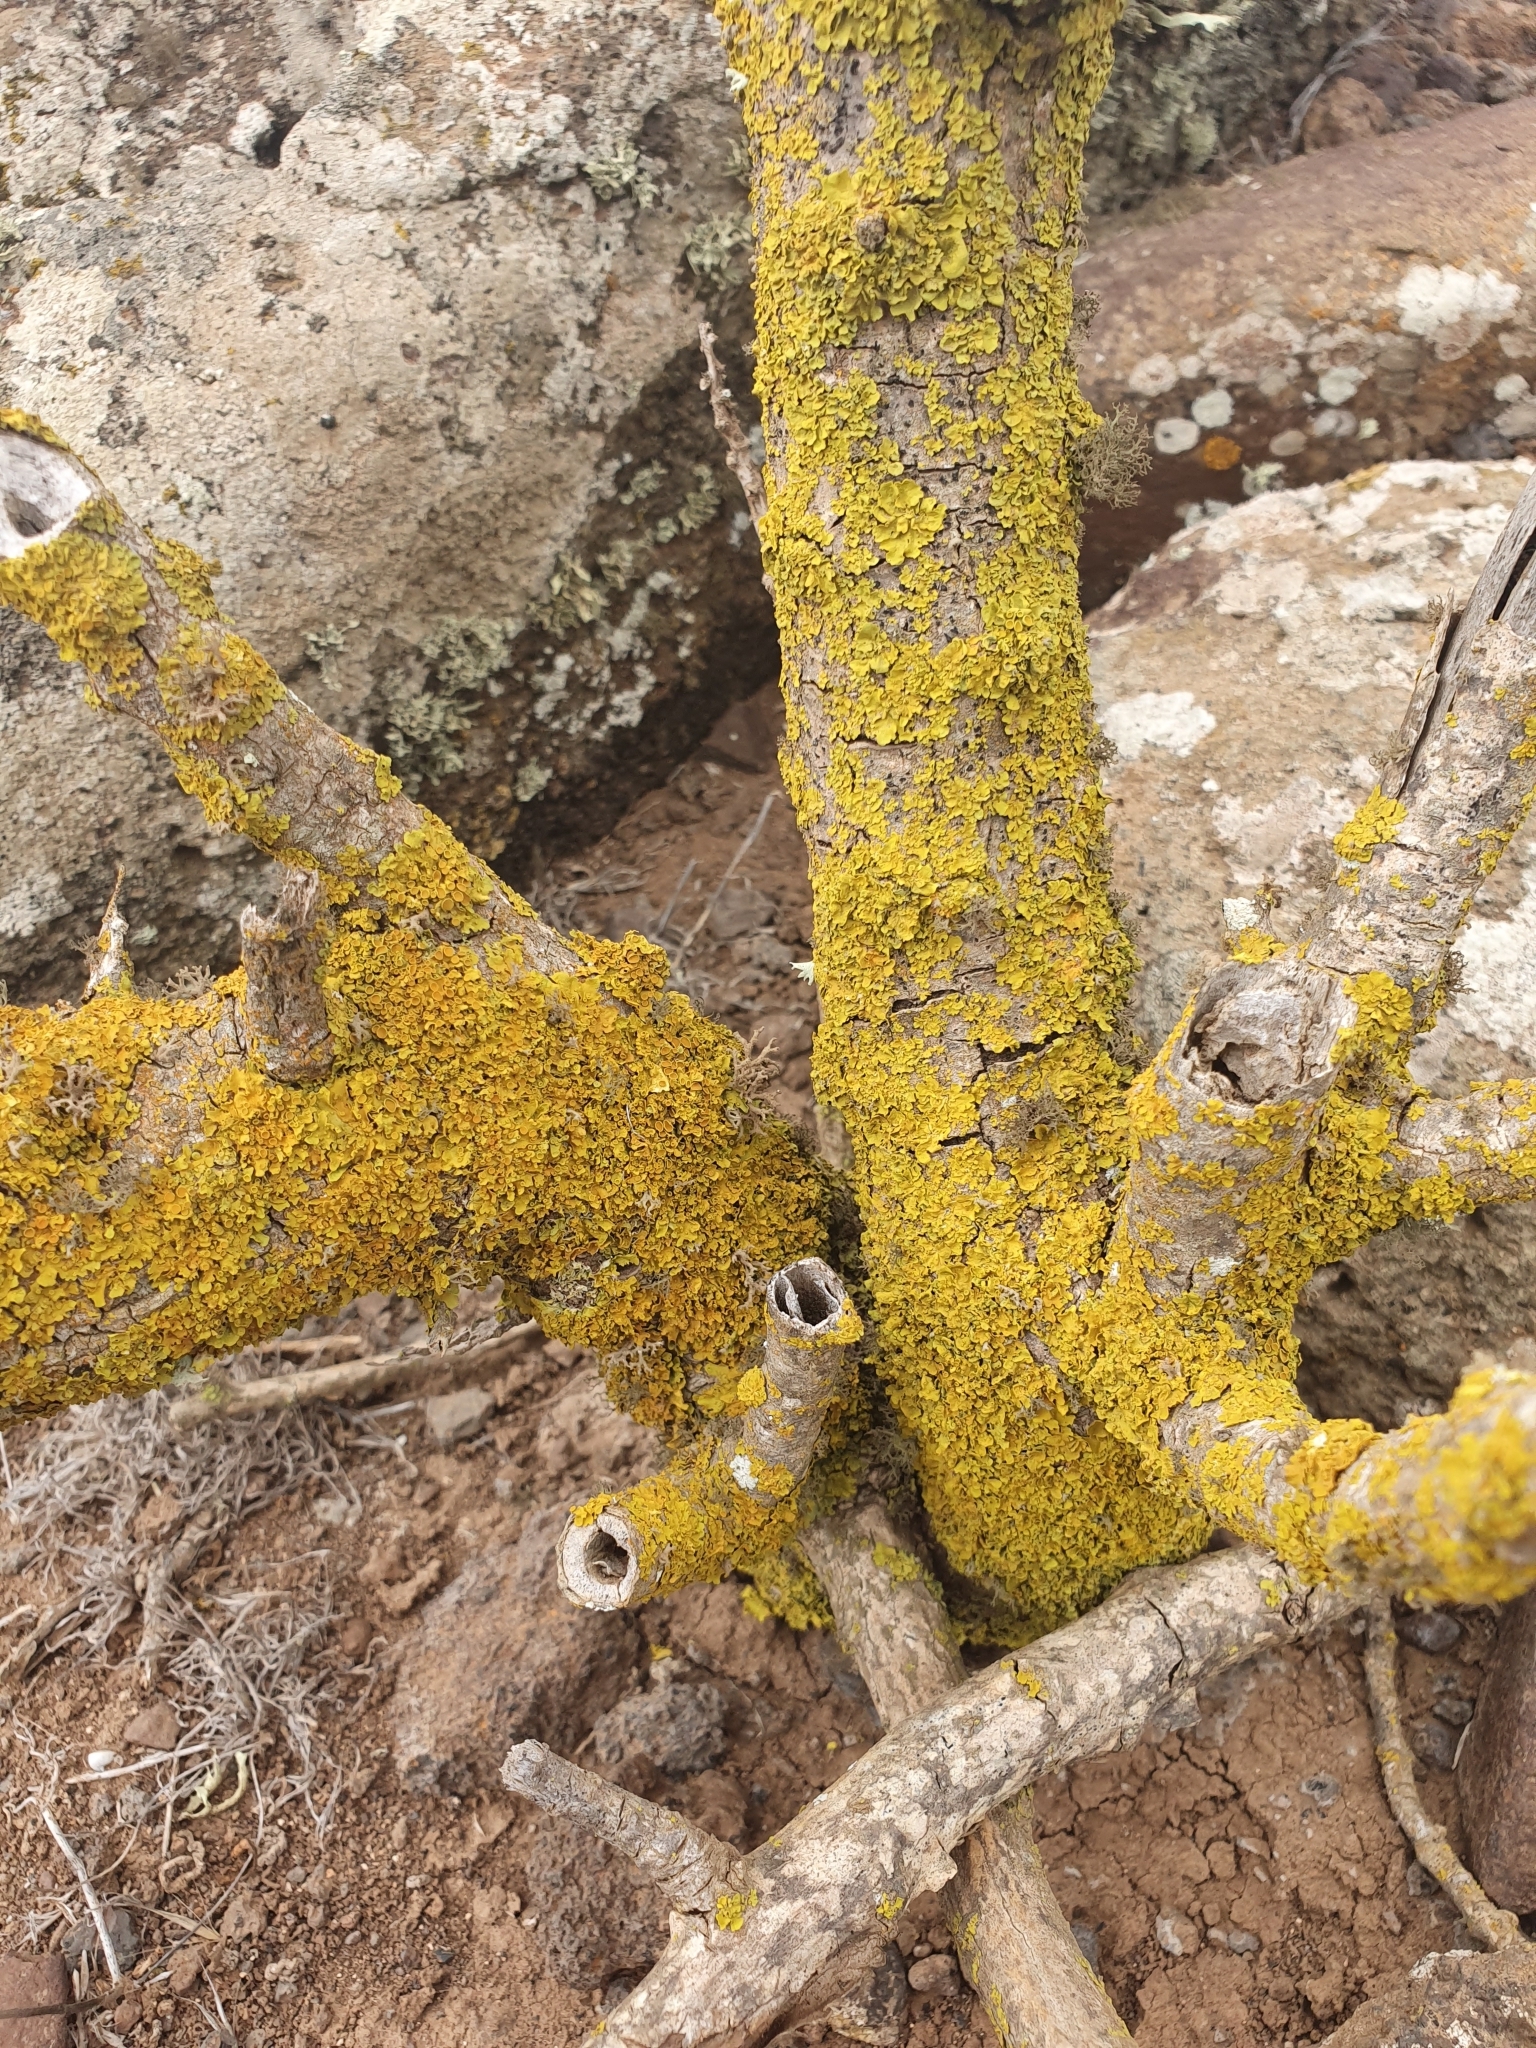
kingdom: Fungi
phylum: Ascomycota
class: Lecanoromycetes
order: Teloschistales
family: Teloschistaceae
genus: Xanthoria
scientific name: Xanthoria parietina
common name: Common orange lichen
